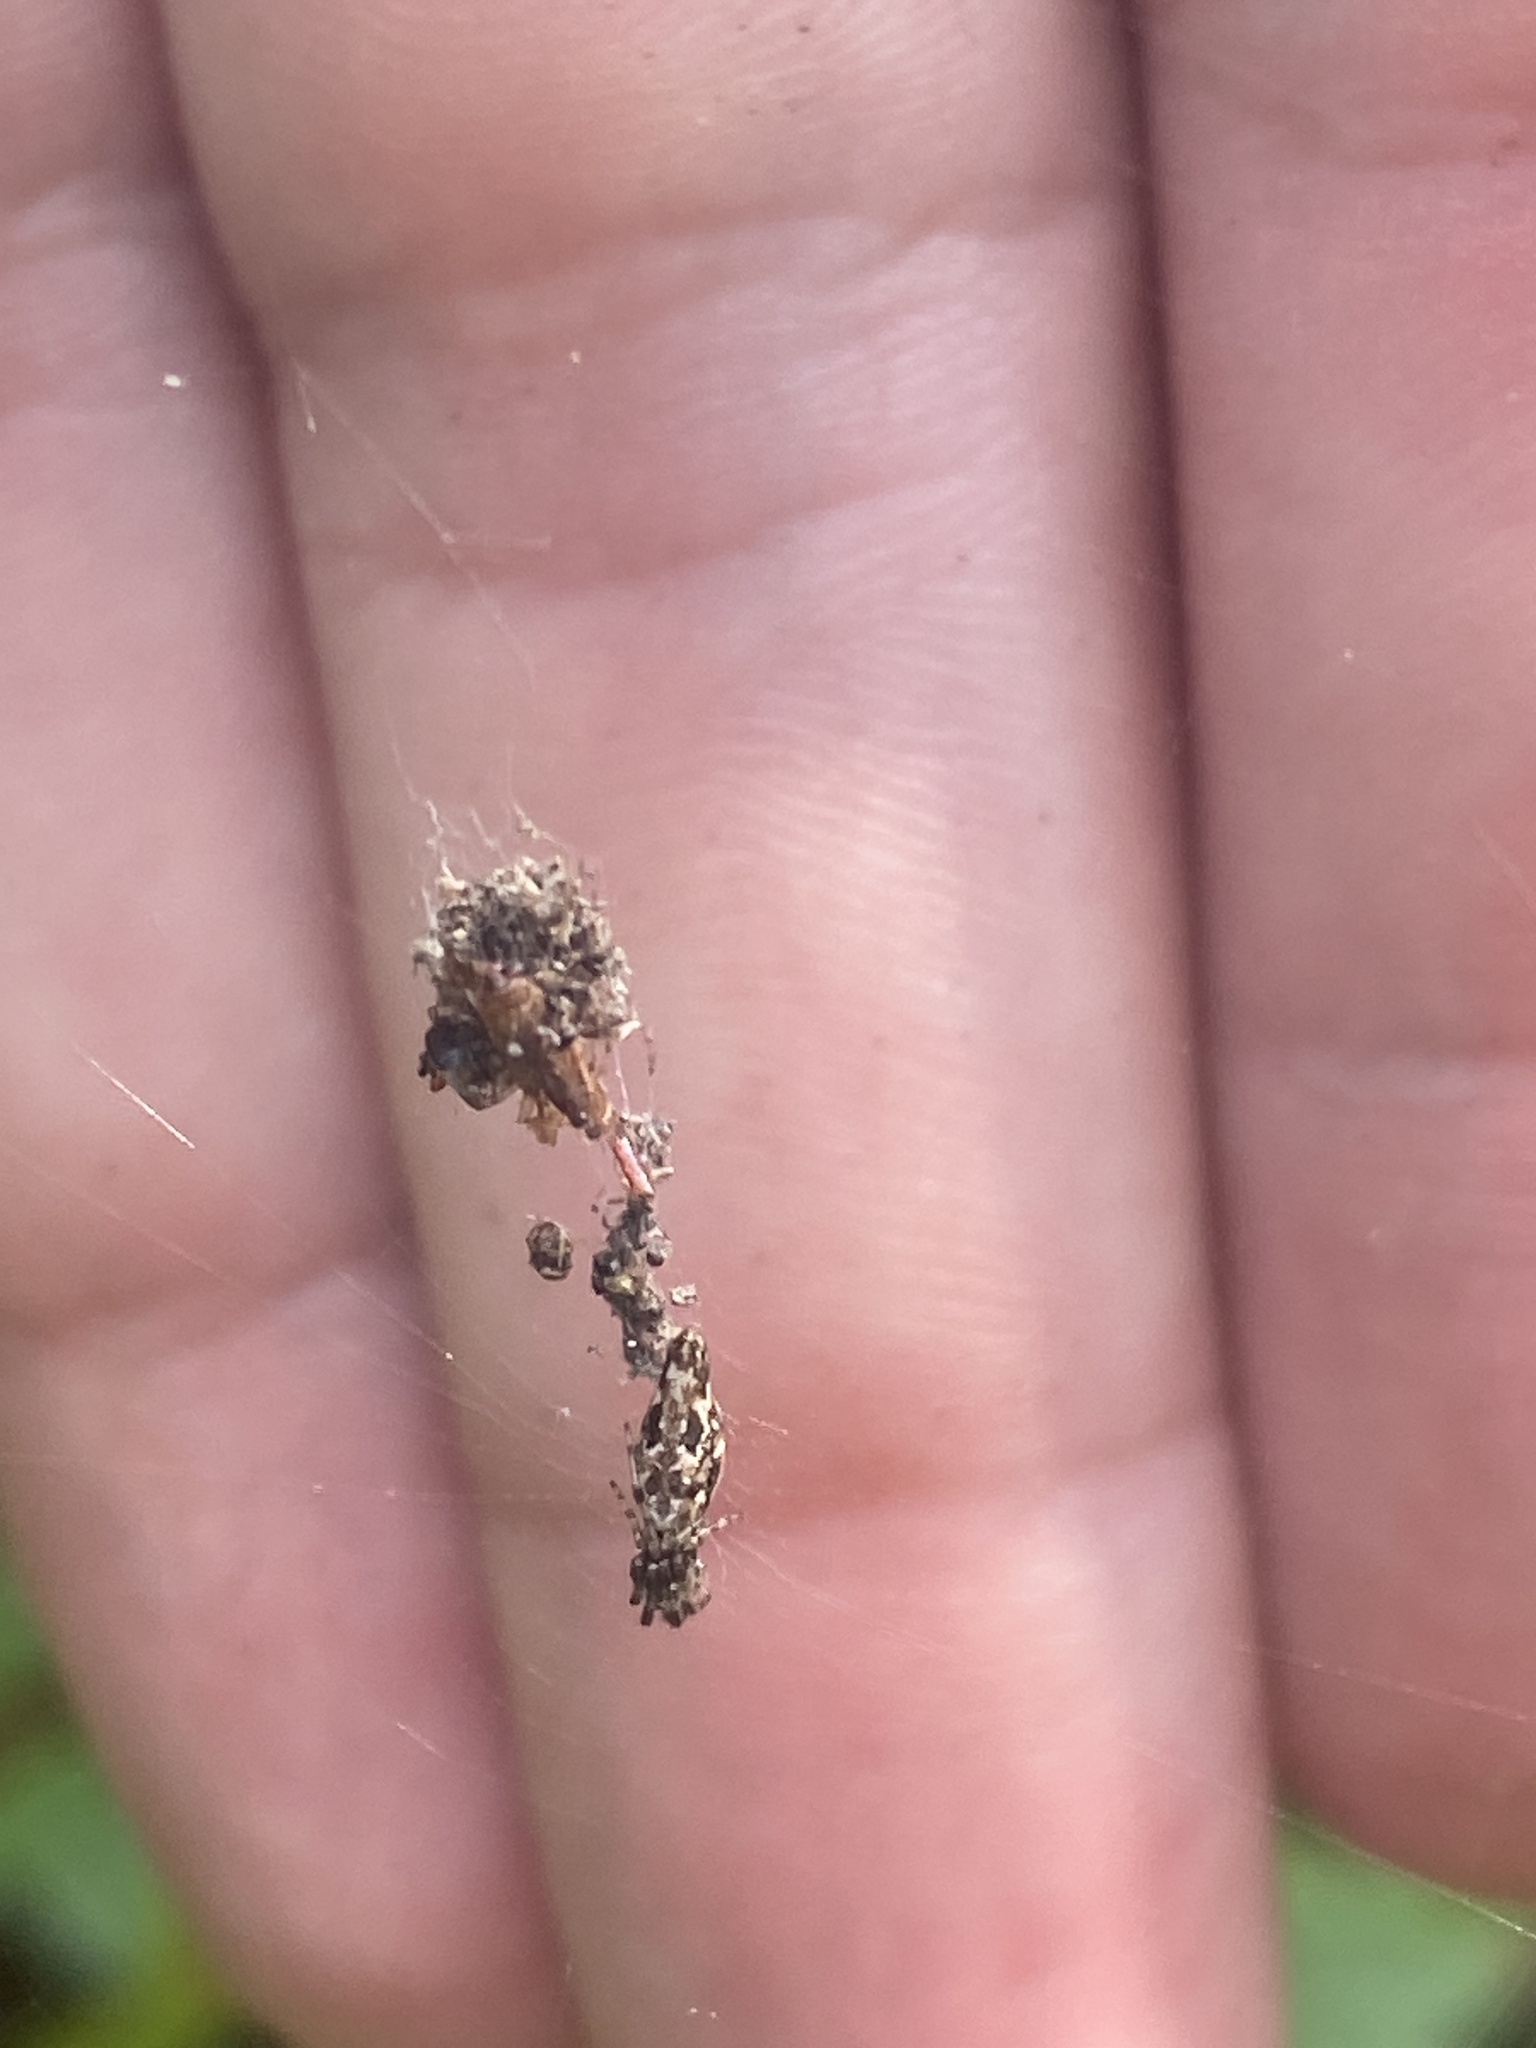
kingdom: Animalia
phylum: Arthropoda
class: Arachnida
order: Araneae
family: Araneidae
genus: Cyclosa
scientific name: Cyclosa caroli
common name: Orb weavers
